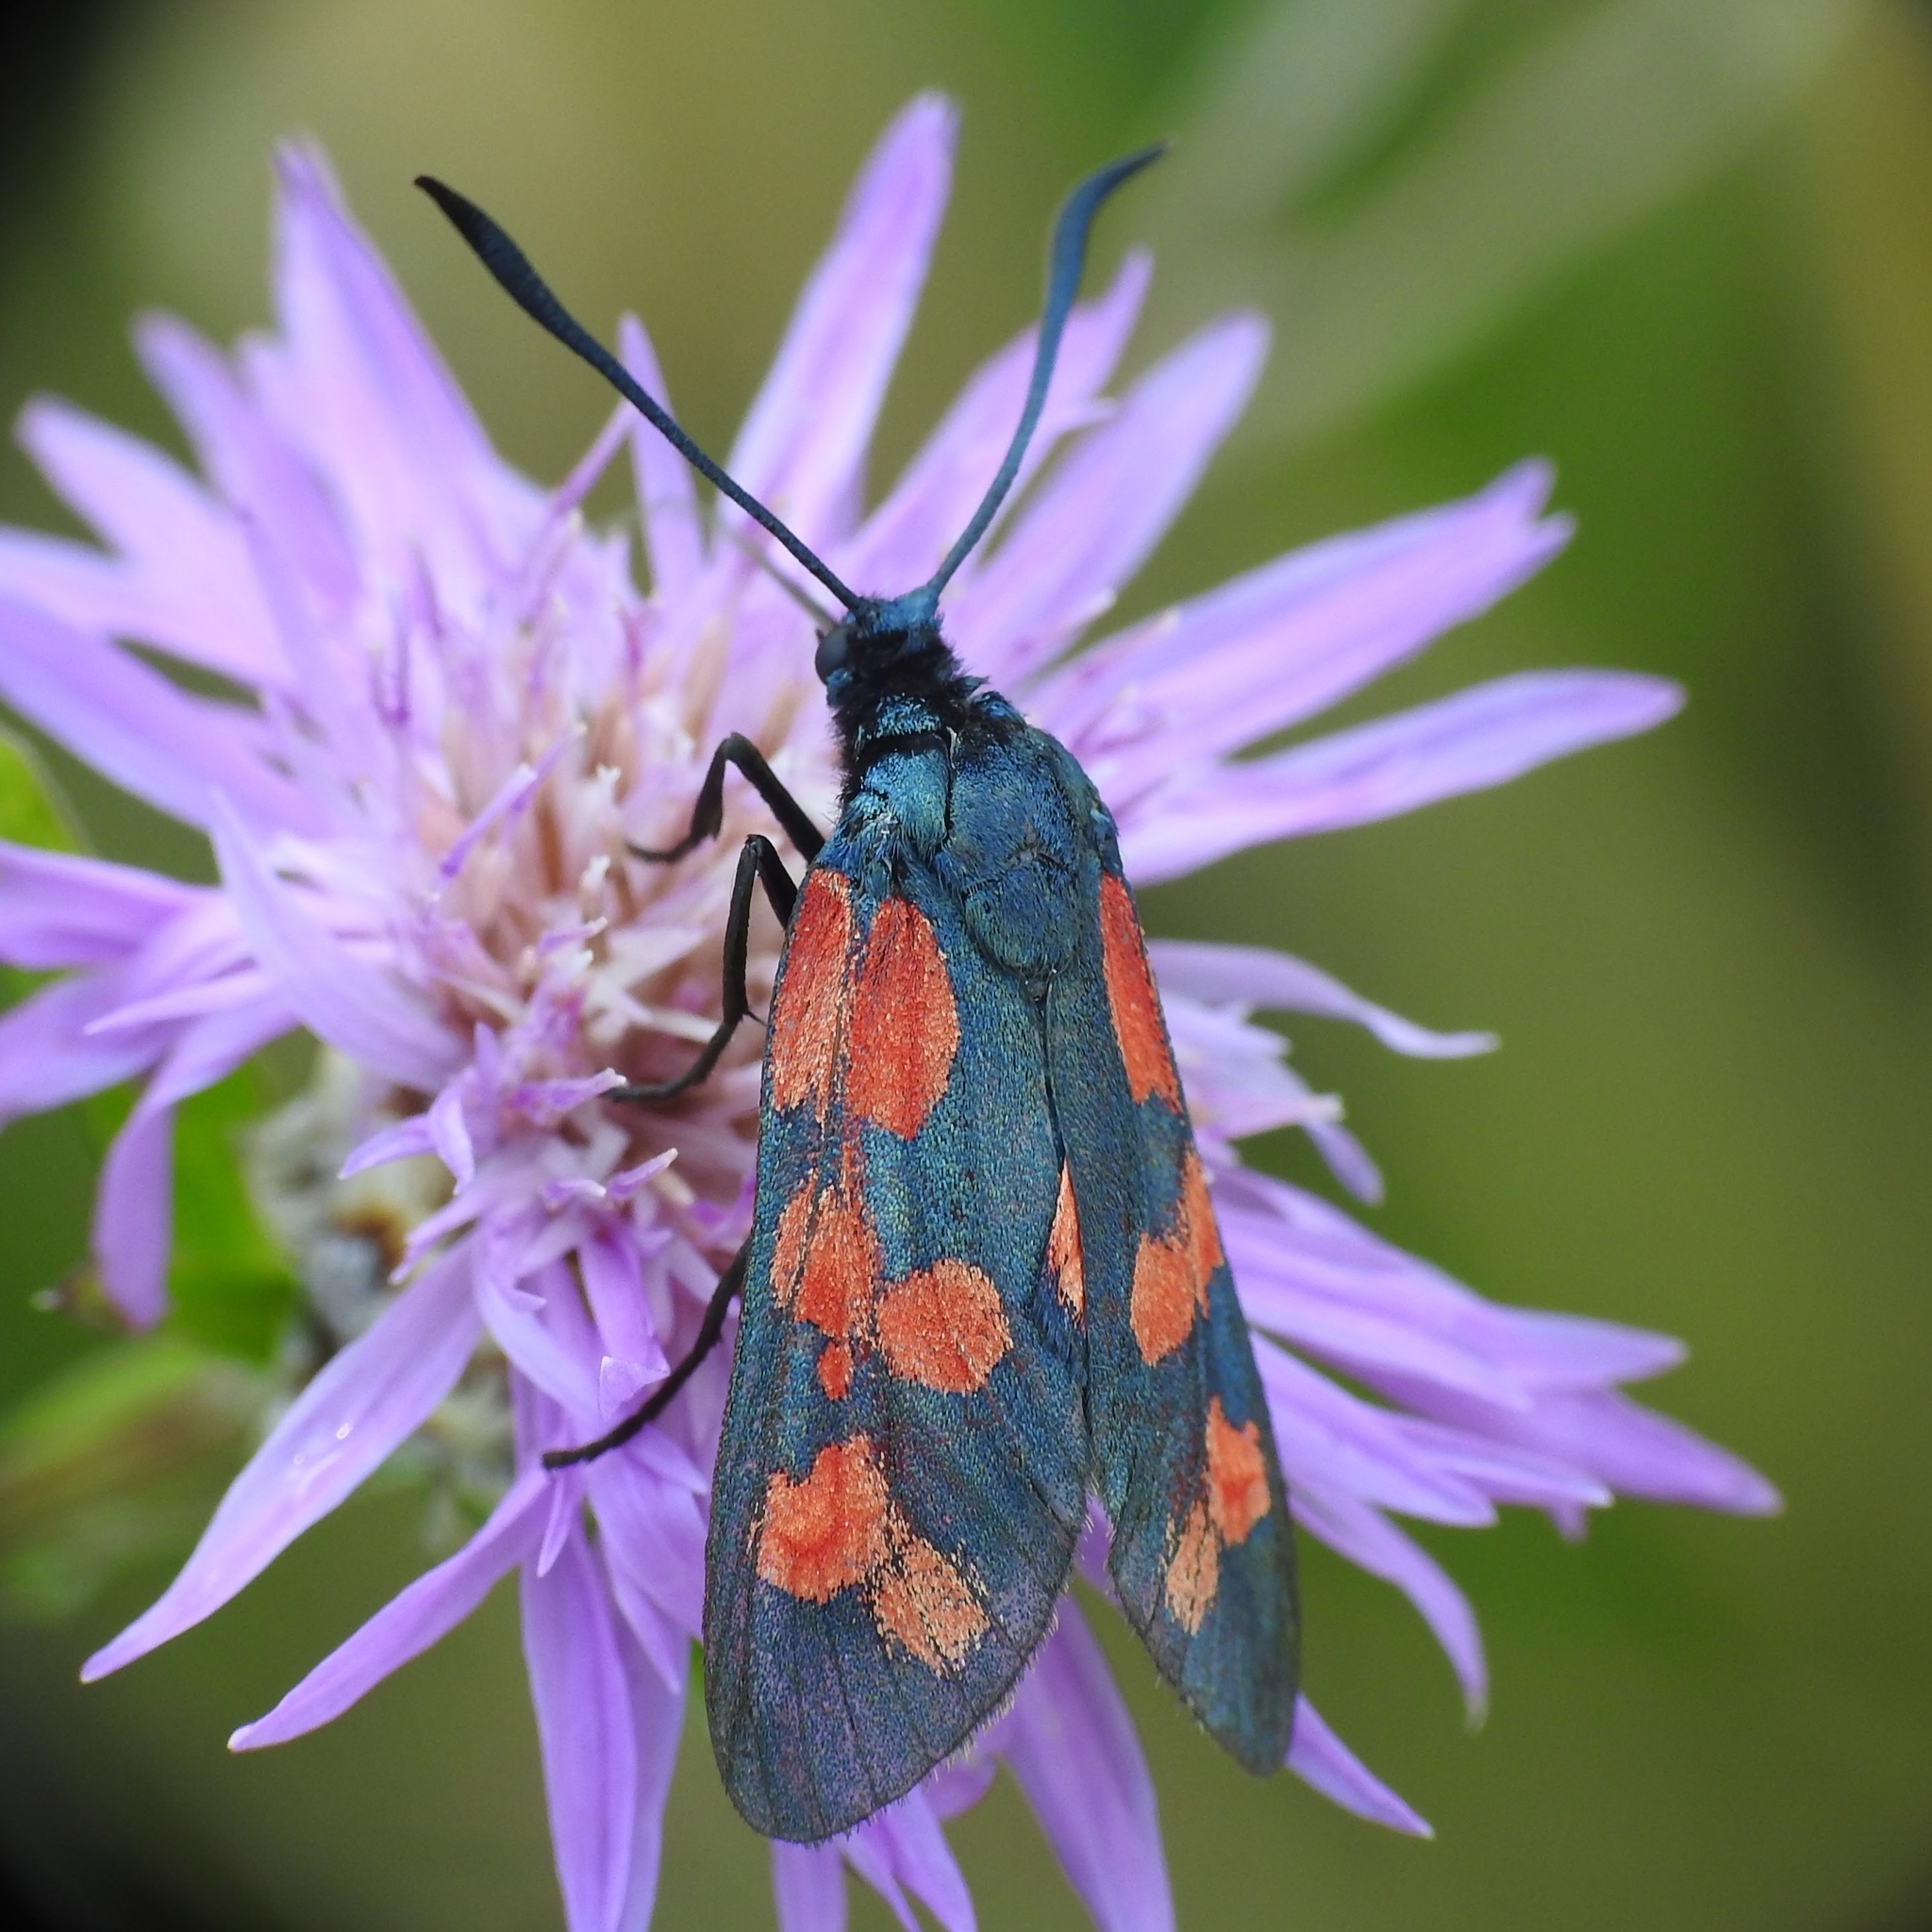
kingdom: Animalia
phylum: Arthropoda
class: Insecta
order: Lepidoptera
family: Zygaenidae
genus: Zygaena
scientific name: Zygaena filipendulae
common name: Six-spot burnet
